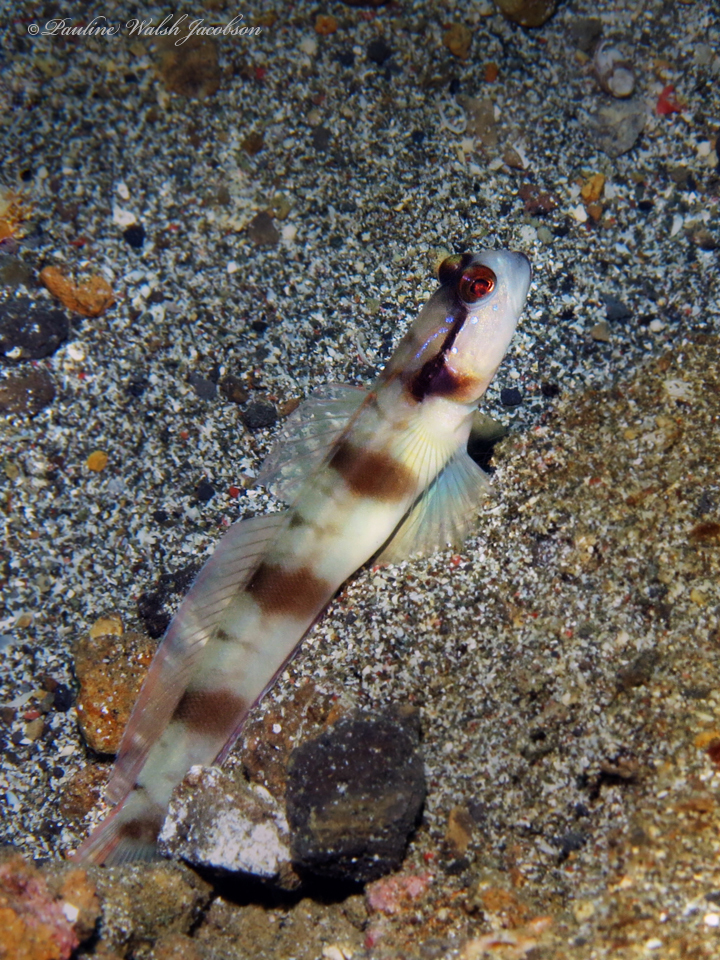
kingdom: Animalia
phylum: Chordata
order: Perciformes
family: Gobiidae
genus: Amblyeleotris
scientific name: Amblyeleotris gymnocephala
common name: Masked shrimpgoby
